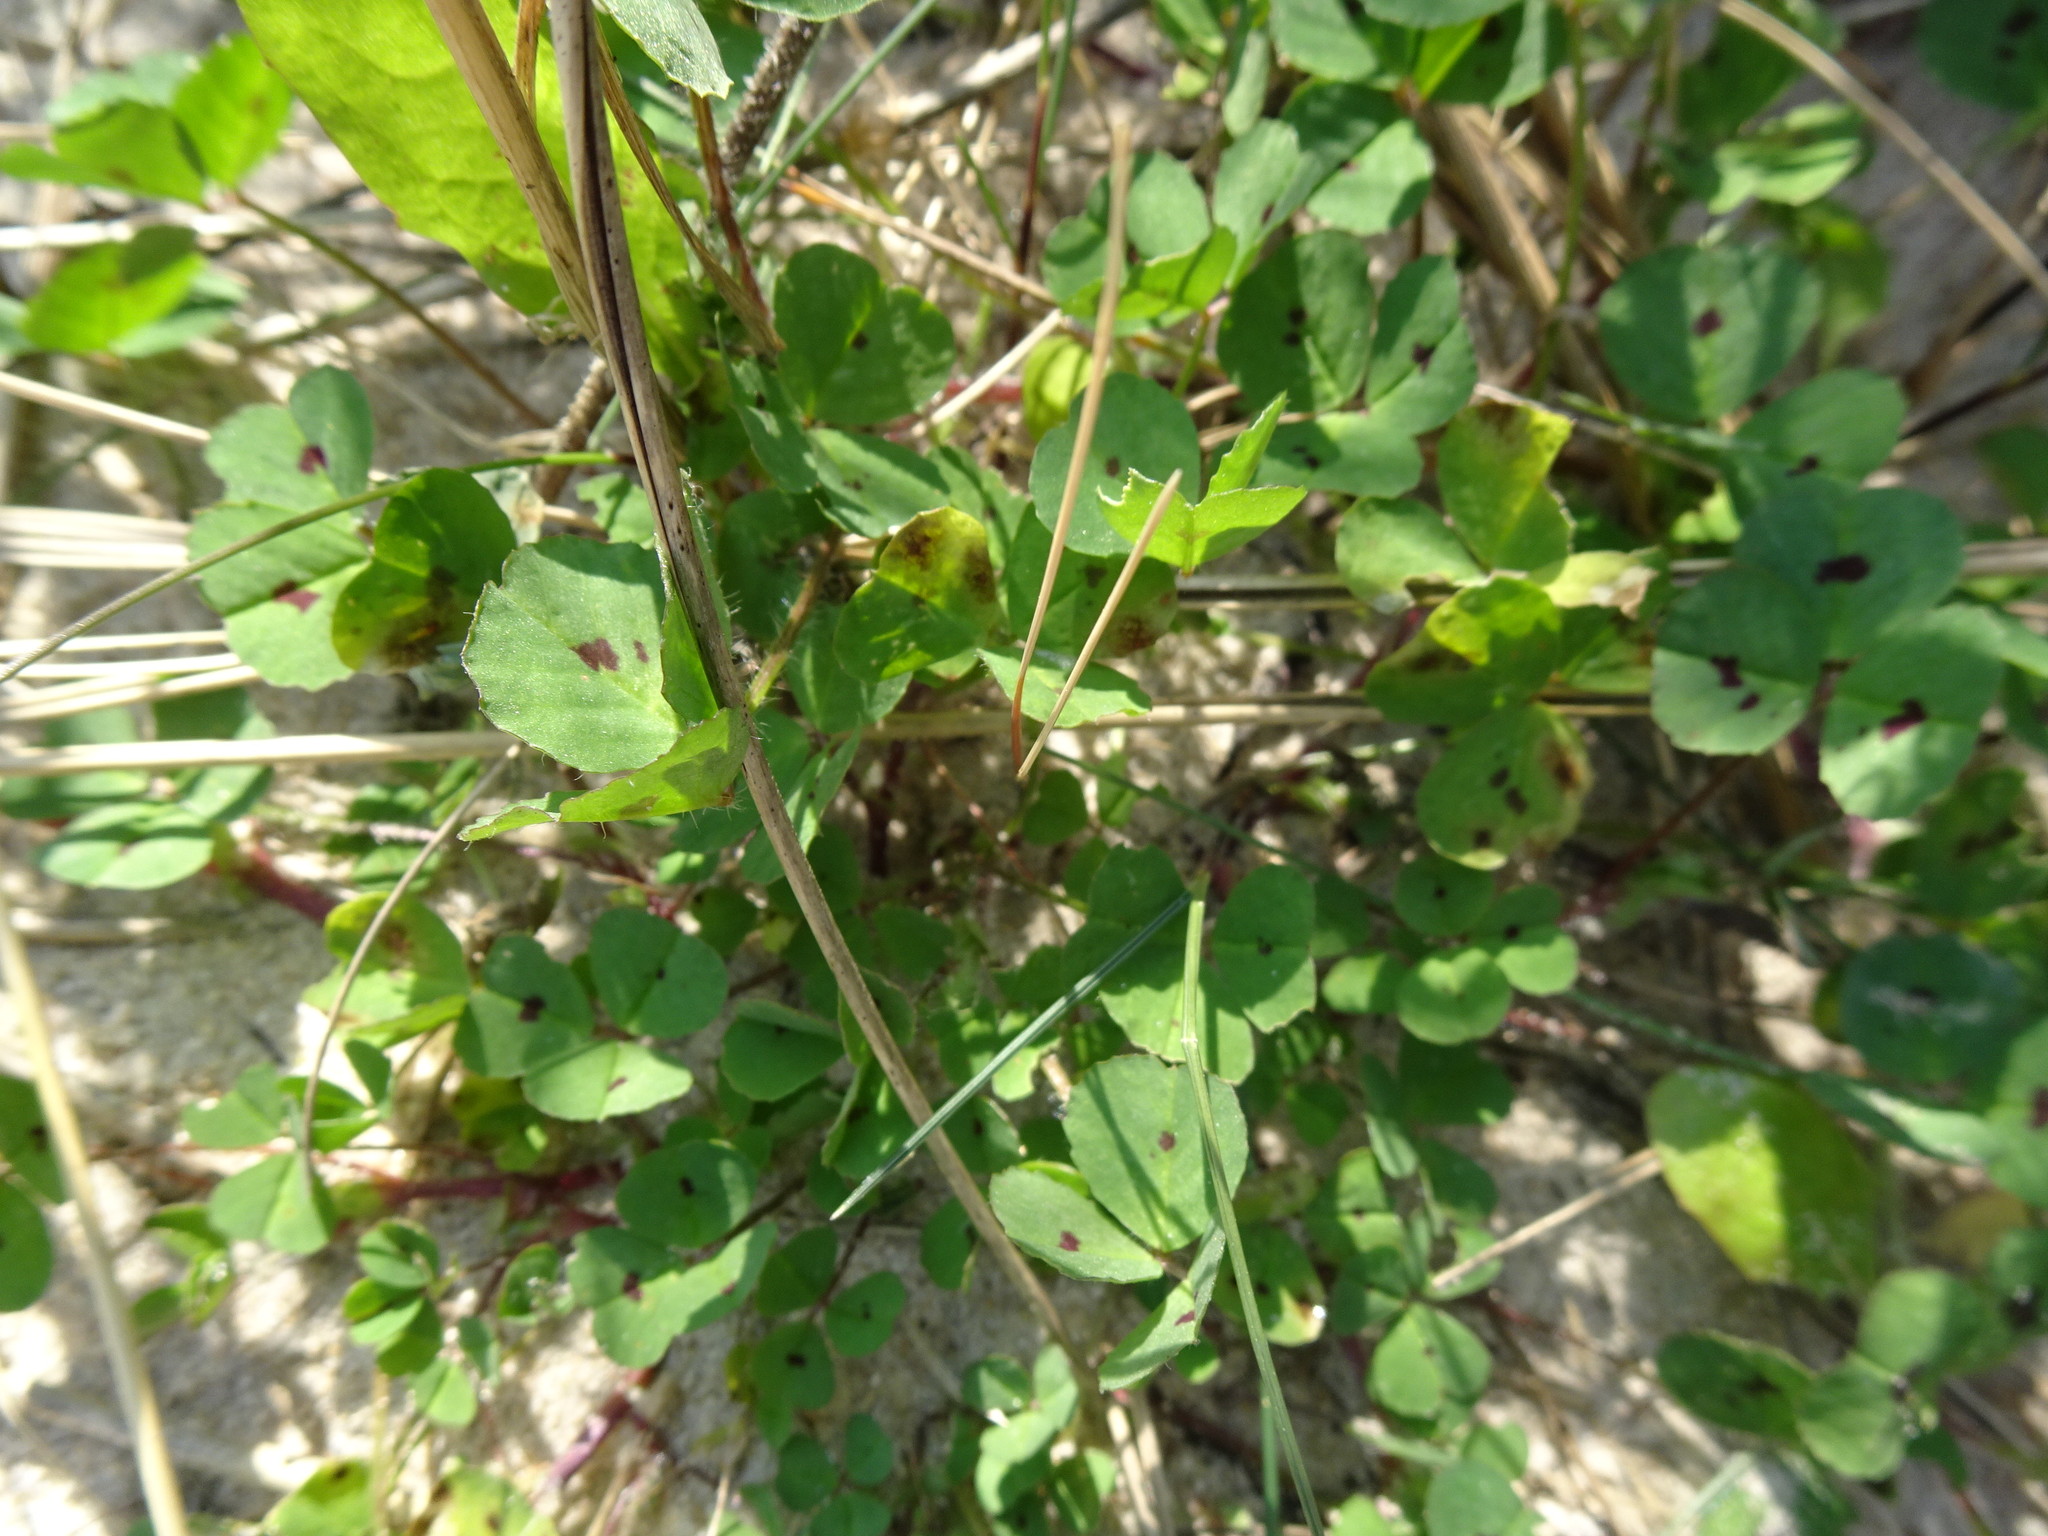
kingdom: Plantae
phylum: Tracheophyta
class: Magnoliopsida
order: Fabales
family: Fabaceae
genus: Medicago
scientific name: Medicago arabica
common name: Spotted medick
